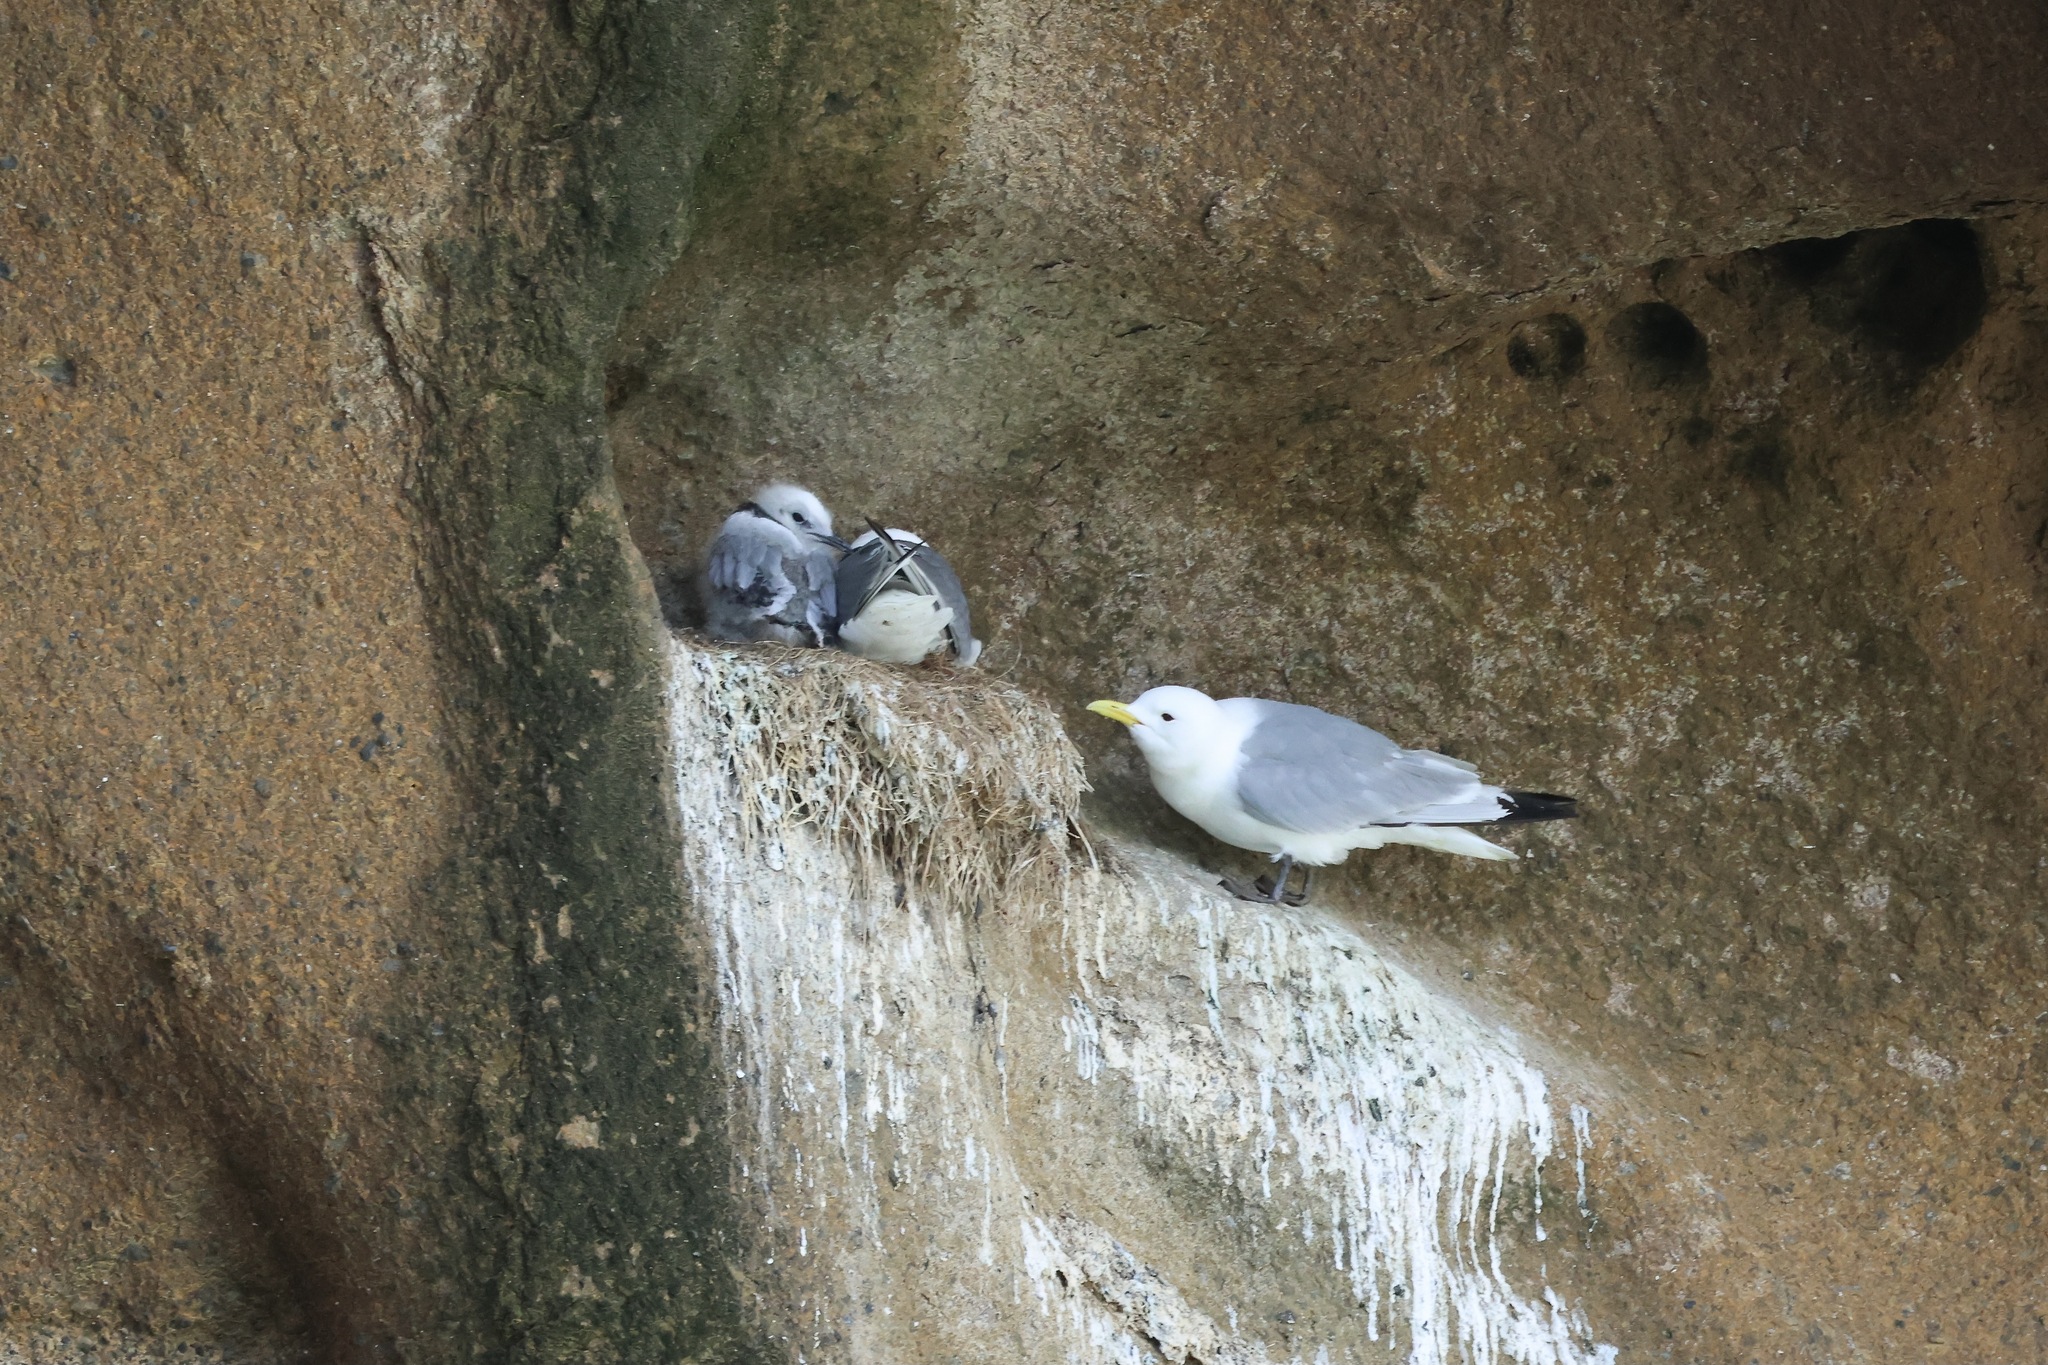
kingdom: Animalia
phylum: Chordata
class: Aves
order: Charadriiformes
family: Laridae
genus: Rissa
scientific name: Rissa tridactyla
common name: Black-legged kittiwake
